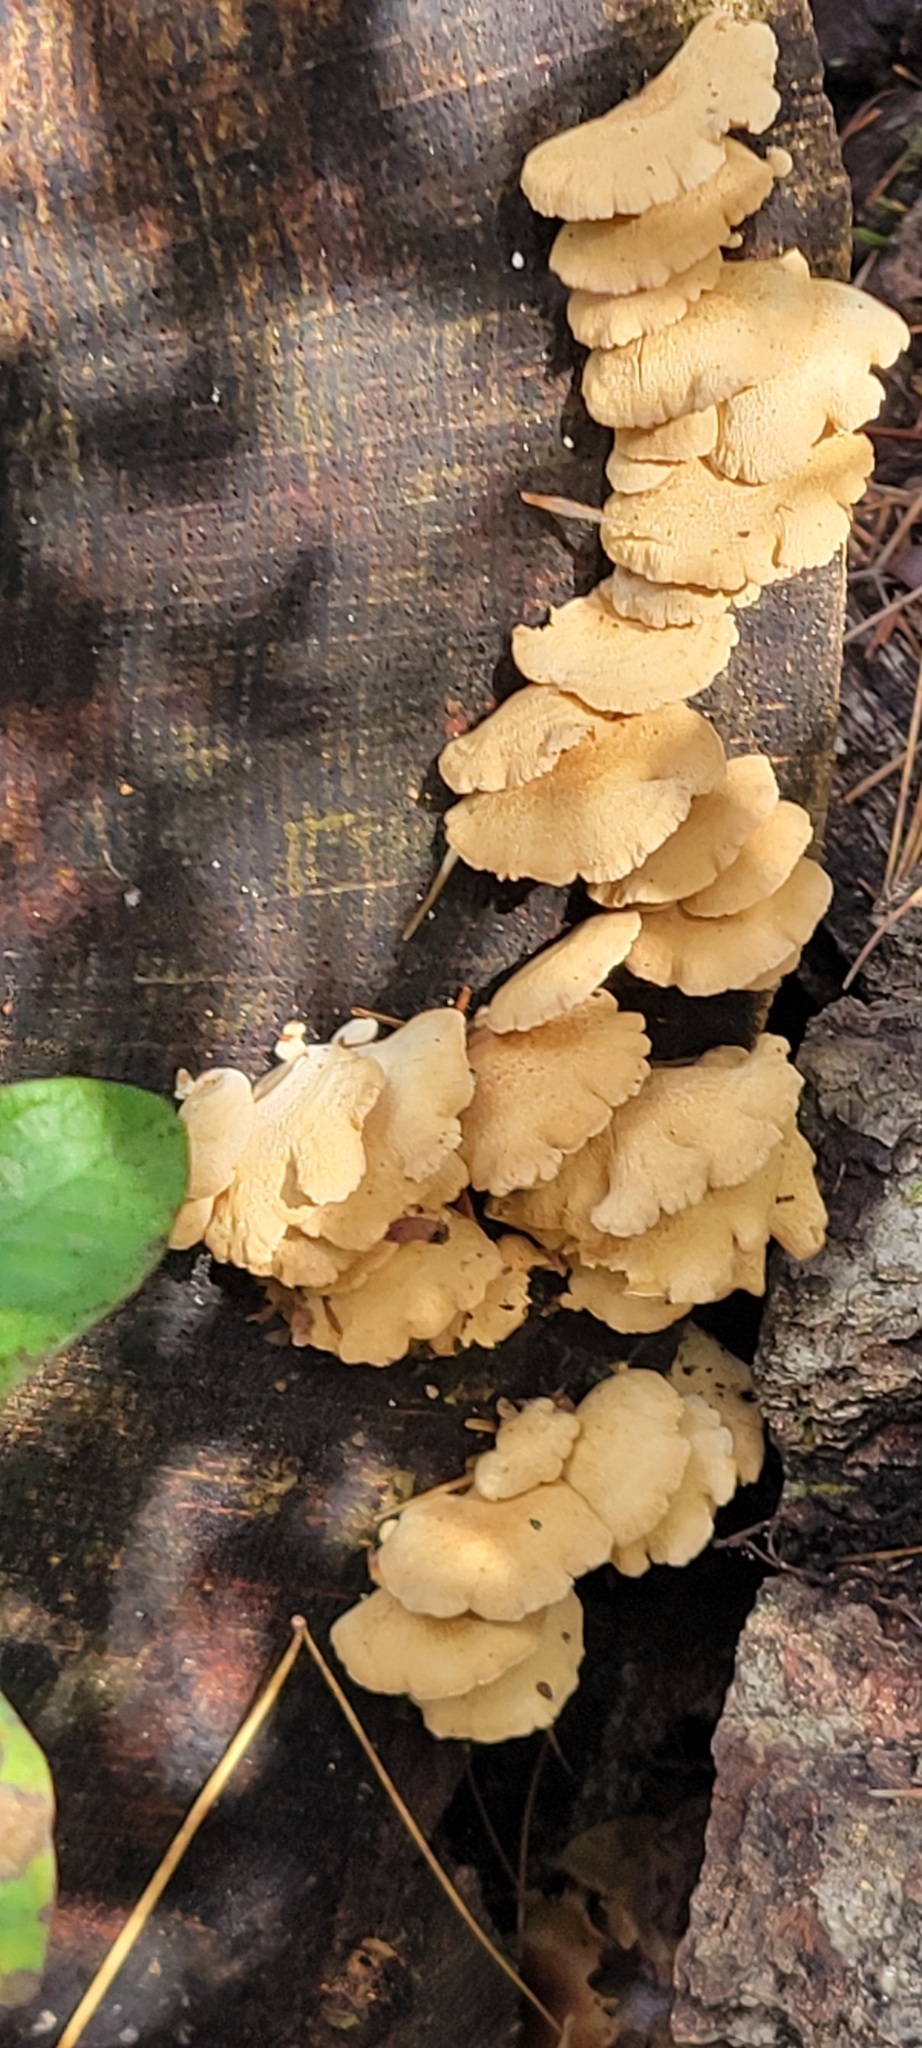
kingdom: Fungi
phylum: Basidiomycota
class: Agaricomycetes
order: Agaricales
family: Mycenaceae
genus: Panellus
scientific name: Panellus stipticus
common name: Bitter oysterling
